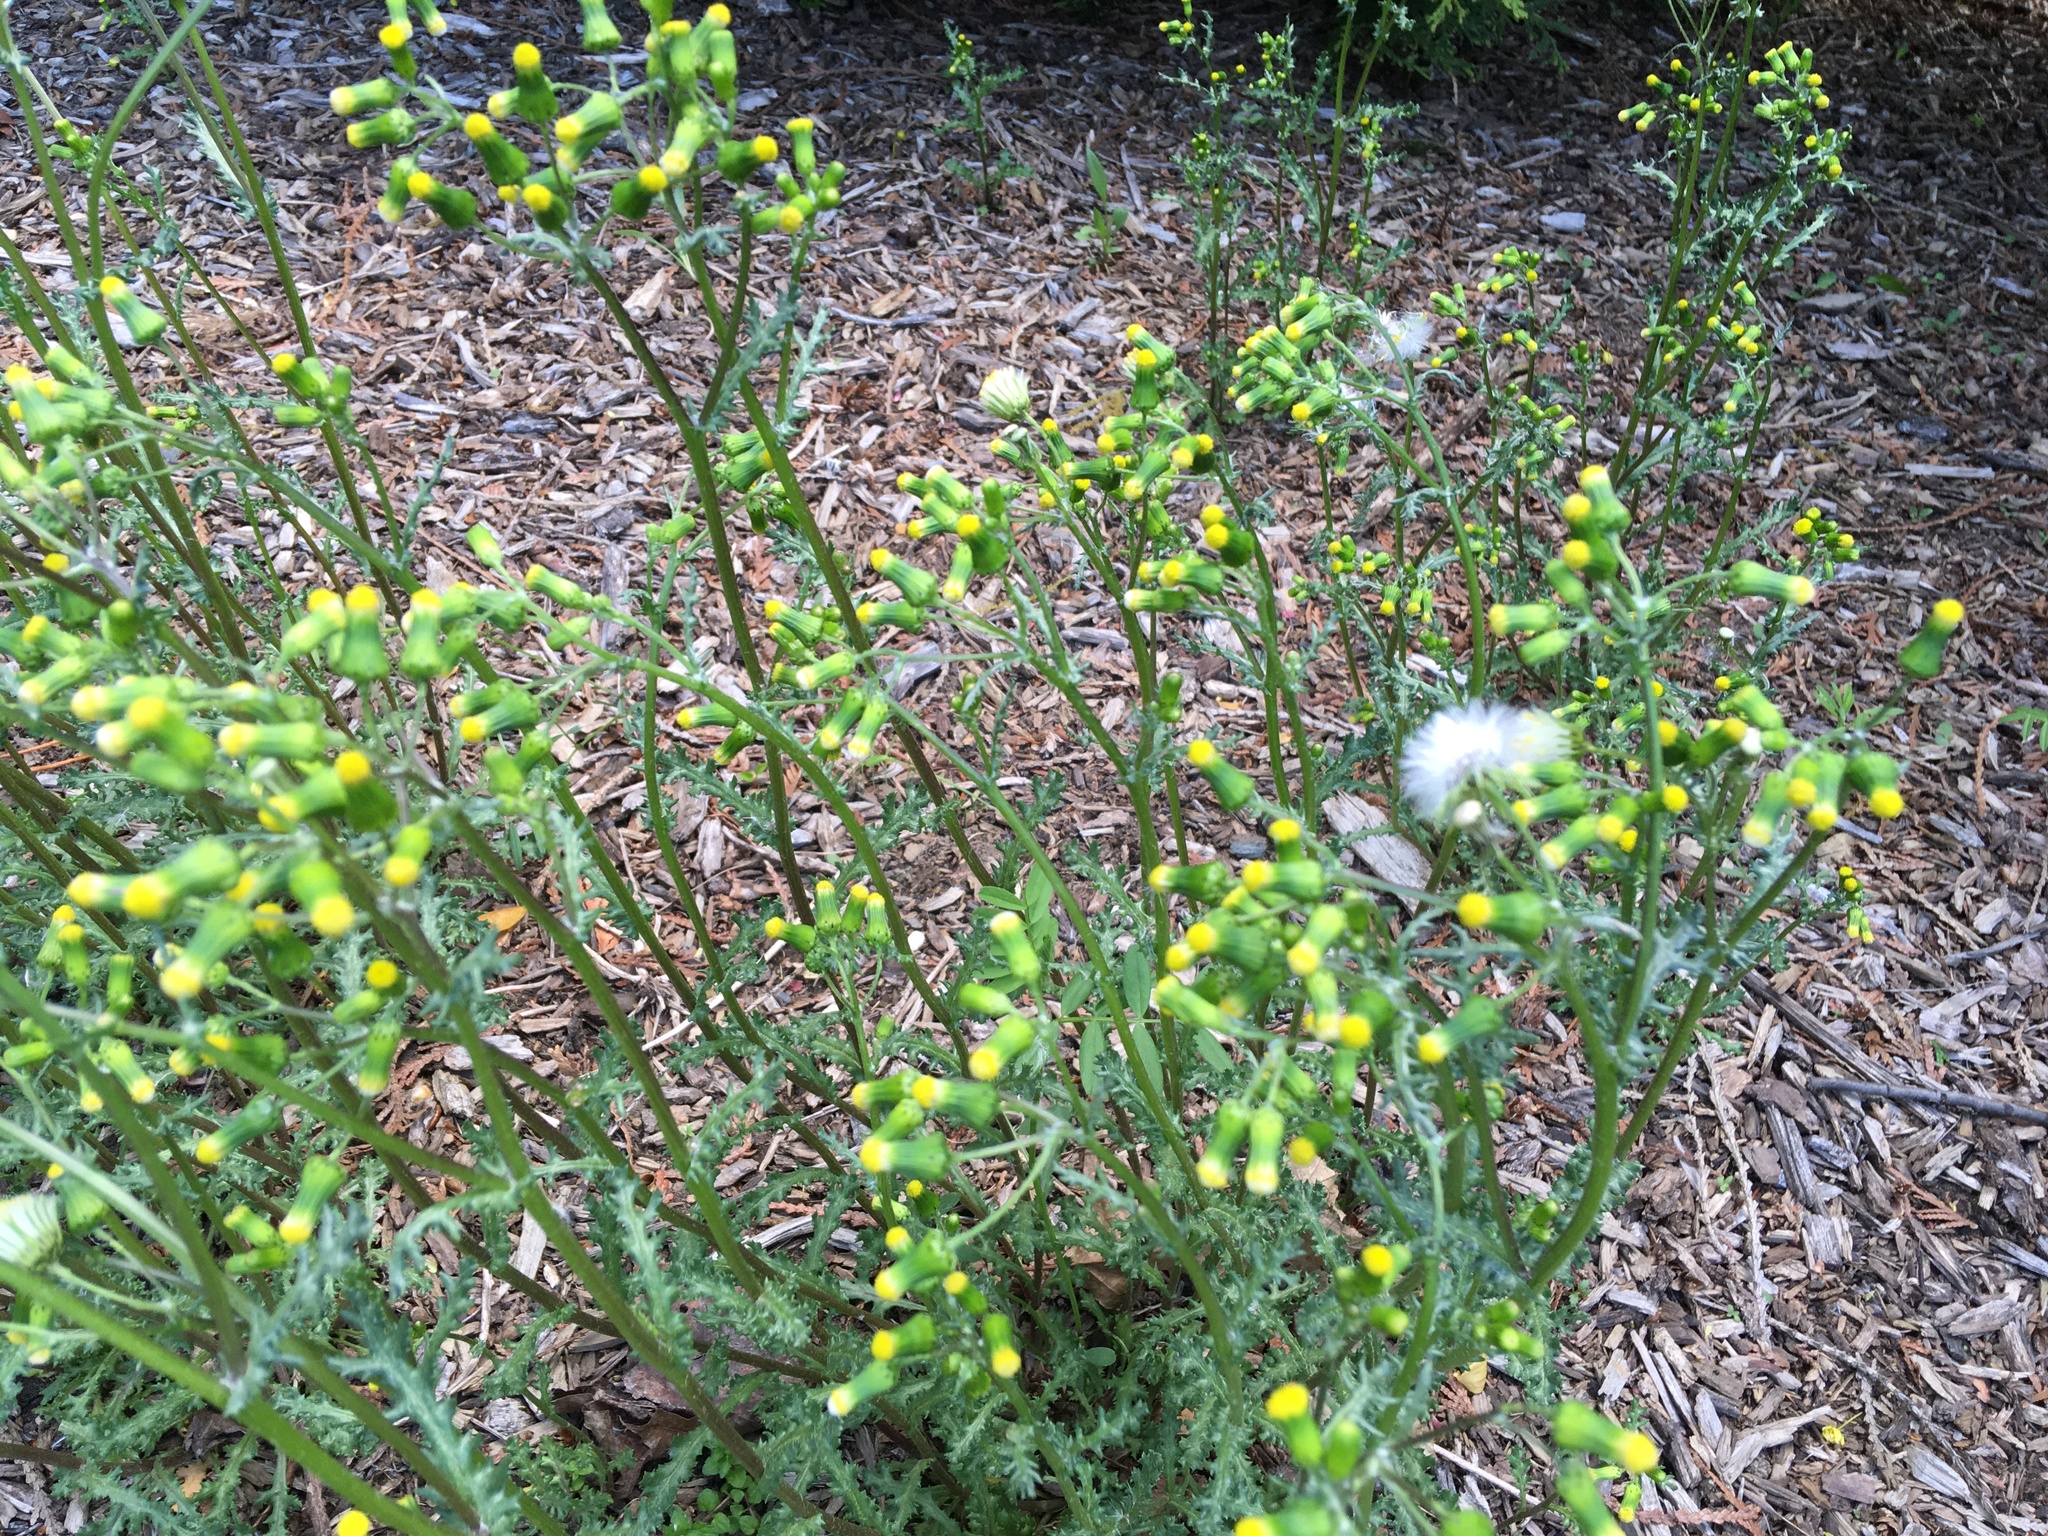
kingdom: Plantae
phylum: Tracheophyta
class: Magnoliopsida
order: Asterales
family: Asteraceae
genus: Senecio
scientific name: Senecio vulgaris
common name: Old-man-in-the-spring
